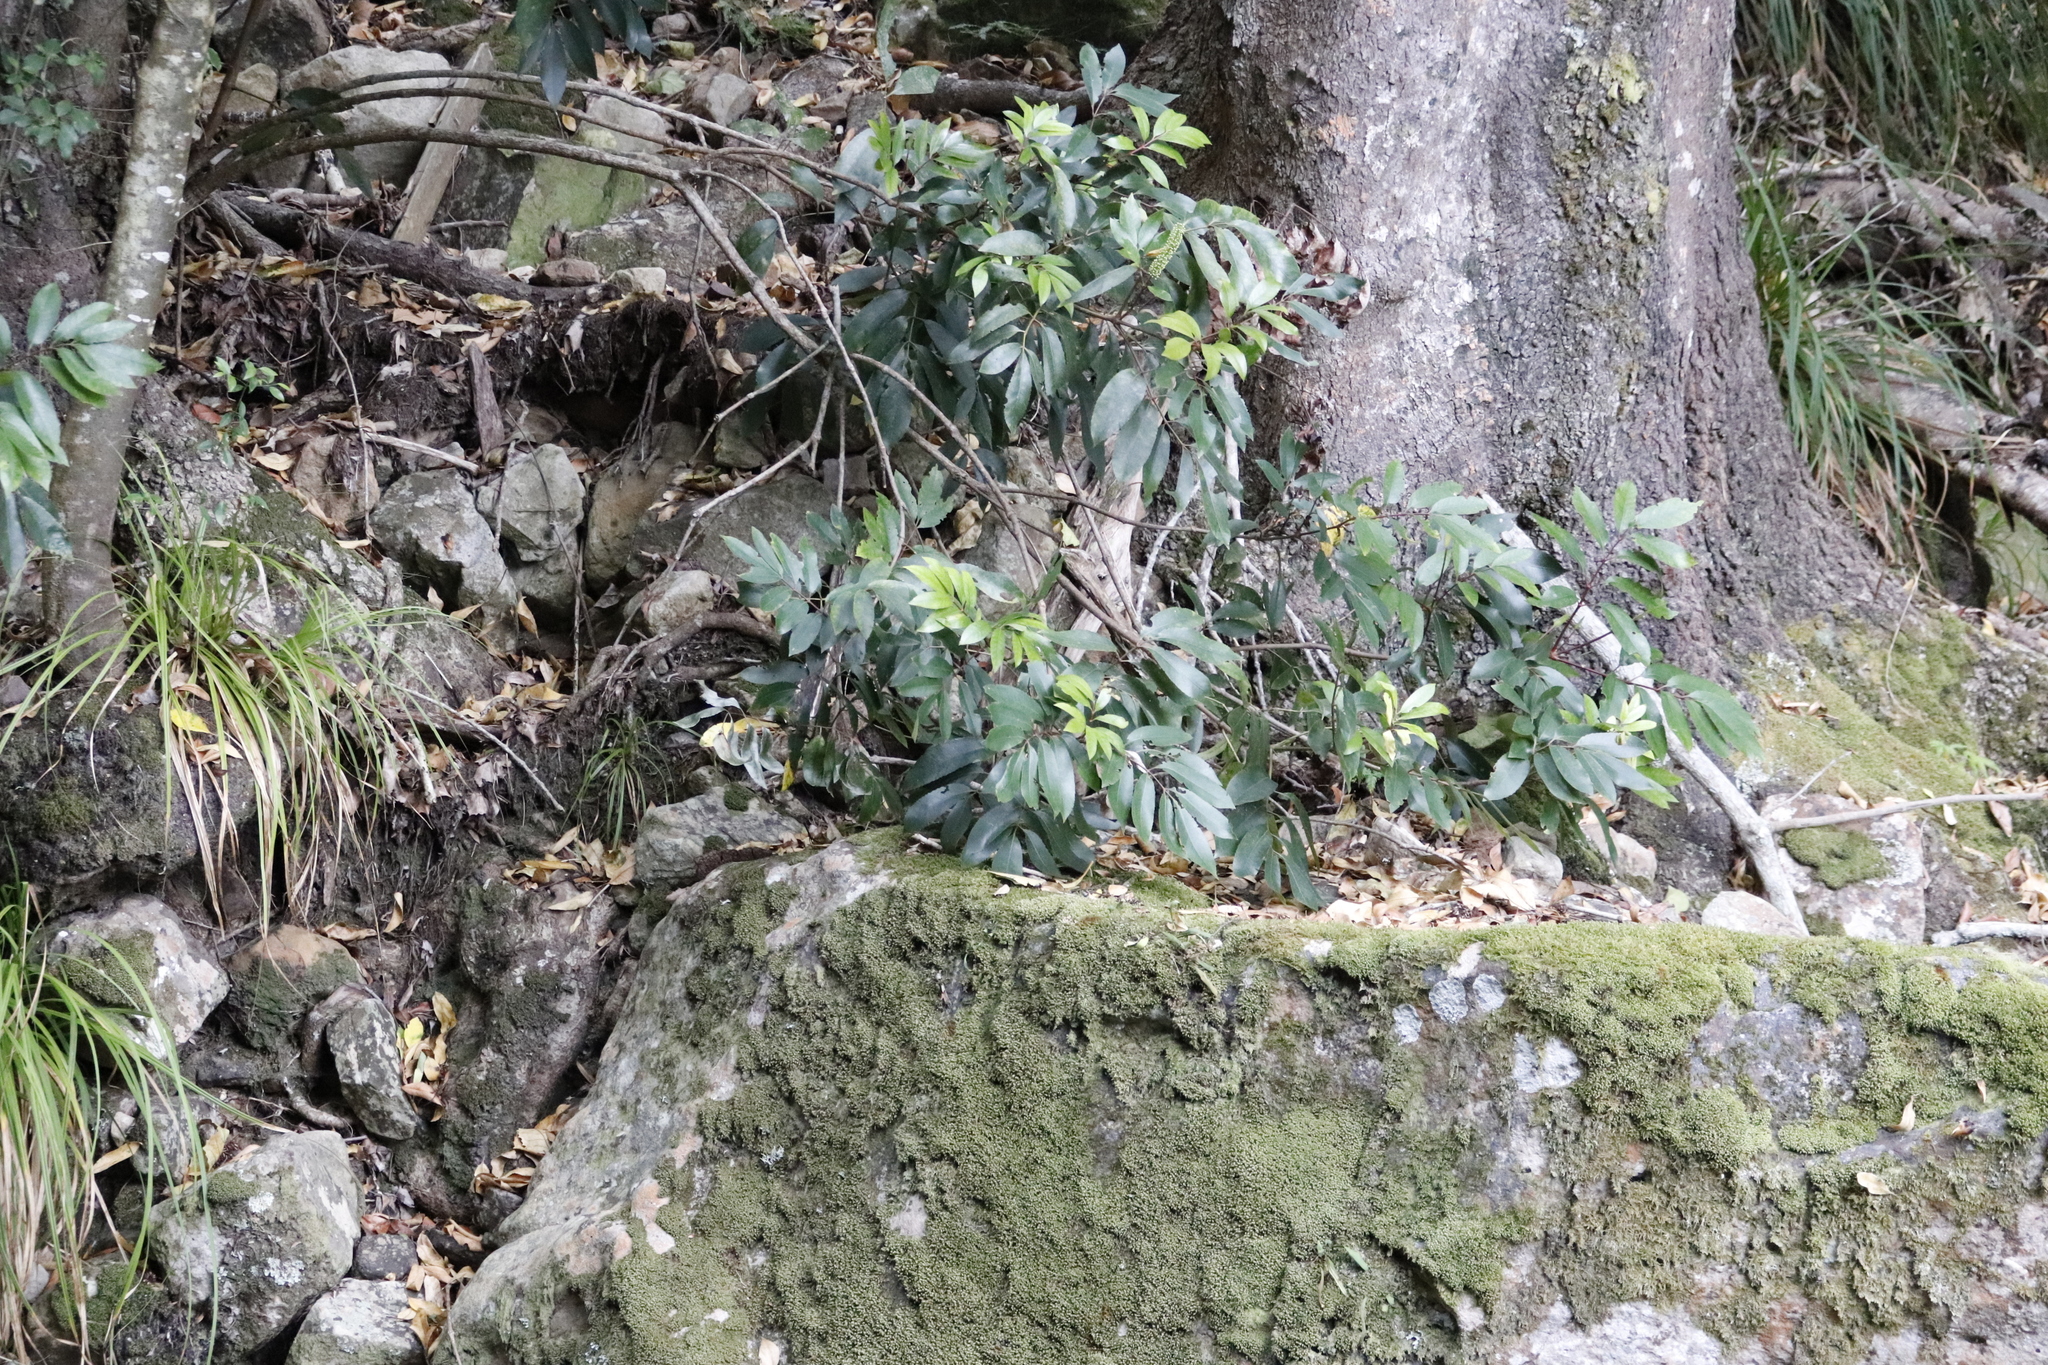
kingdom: Plantae
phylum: Tracheophyta
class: Magnoliopsida
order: Oxalidales
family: Cunoniaceae
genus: Cunonia
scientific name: Cunonia capensis
